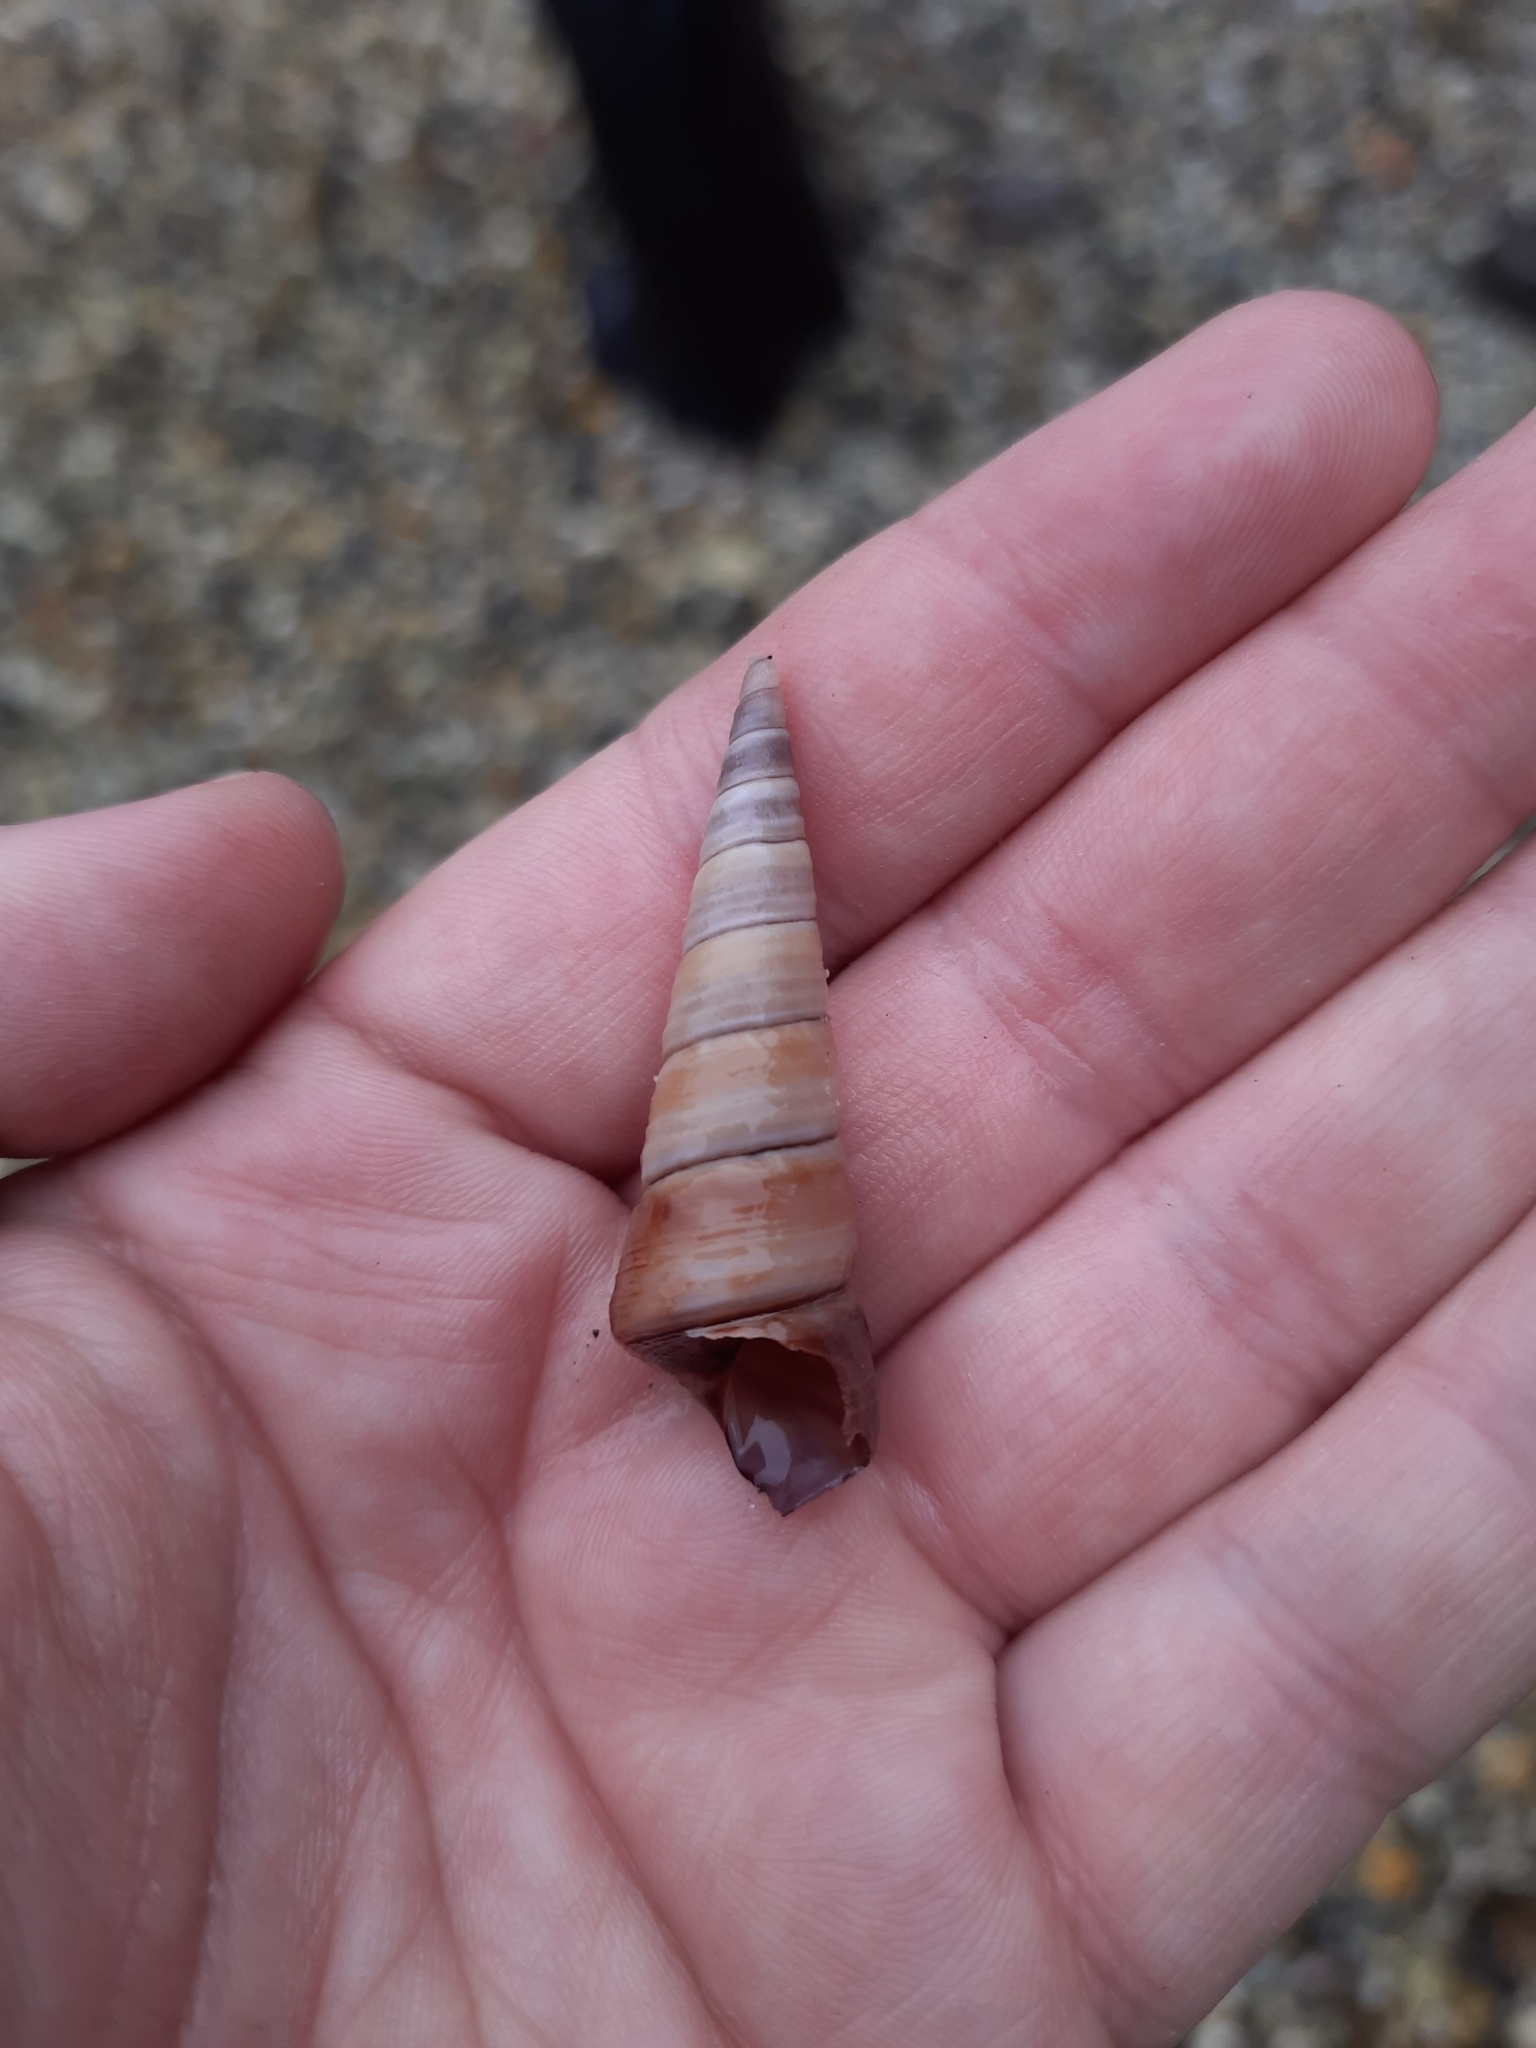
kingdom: Animalia
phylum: Mollusca
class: Gastropoda
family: Turritellidae
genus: Maoricolpus
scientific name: Maoricolpus roseus
